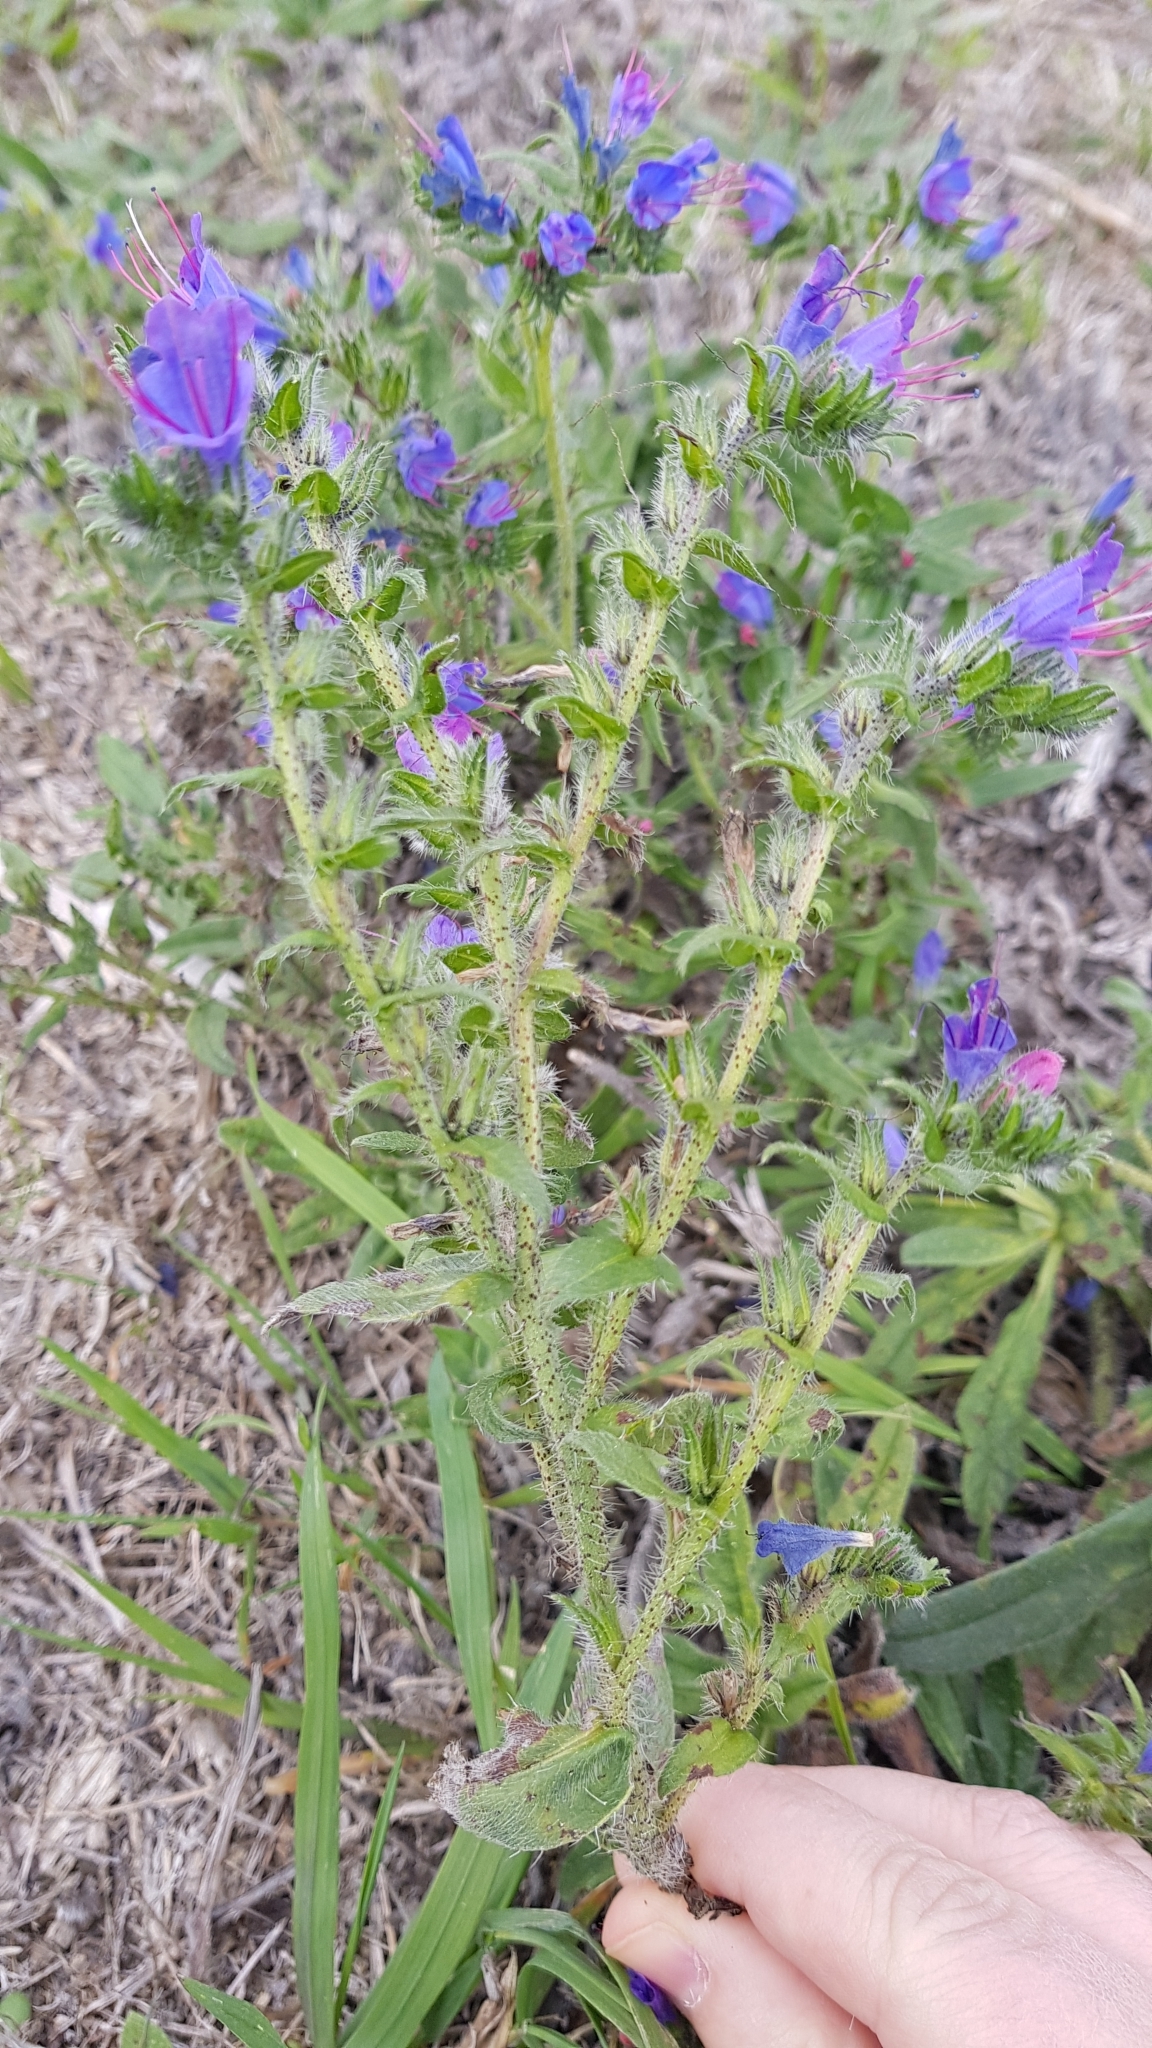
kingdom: Plantae
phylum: Tracheophyta
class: Magnoliopsida
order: Boraginales
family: Boraginaceae
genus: Echium
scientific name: Echium vulgare
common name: Common viper's bugloss
